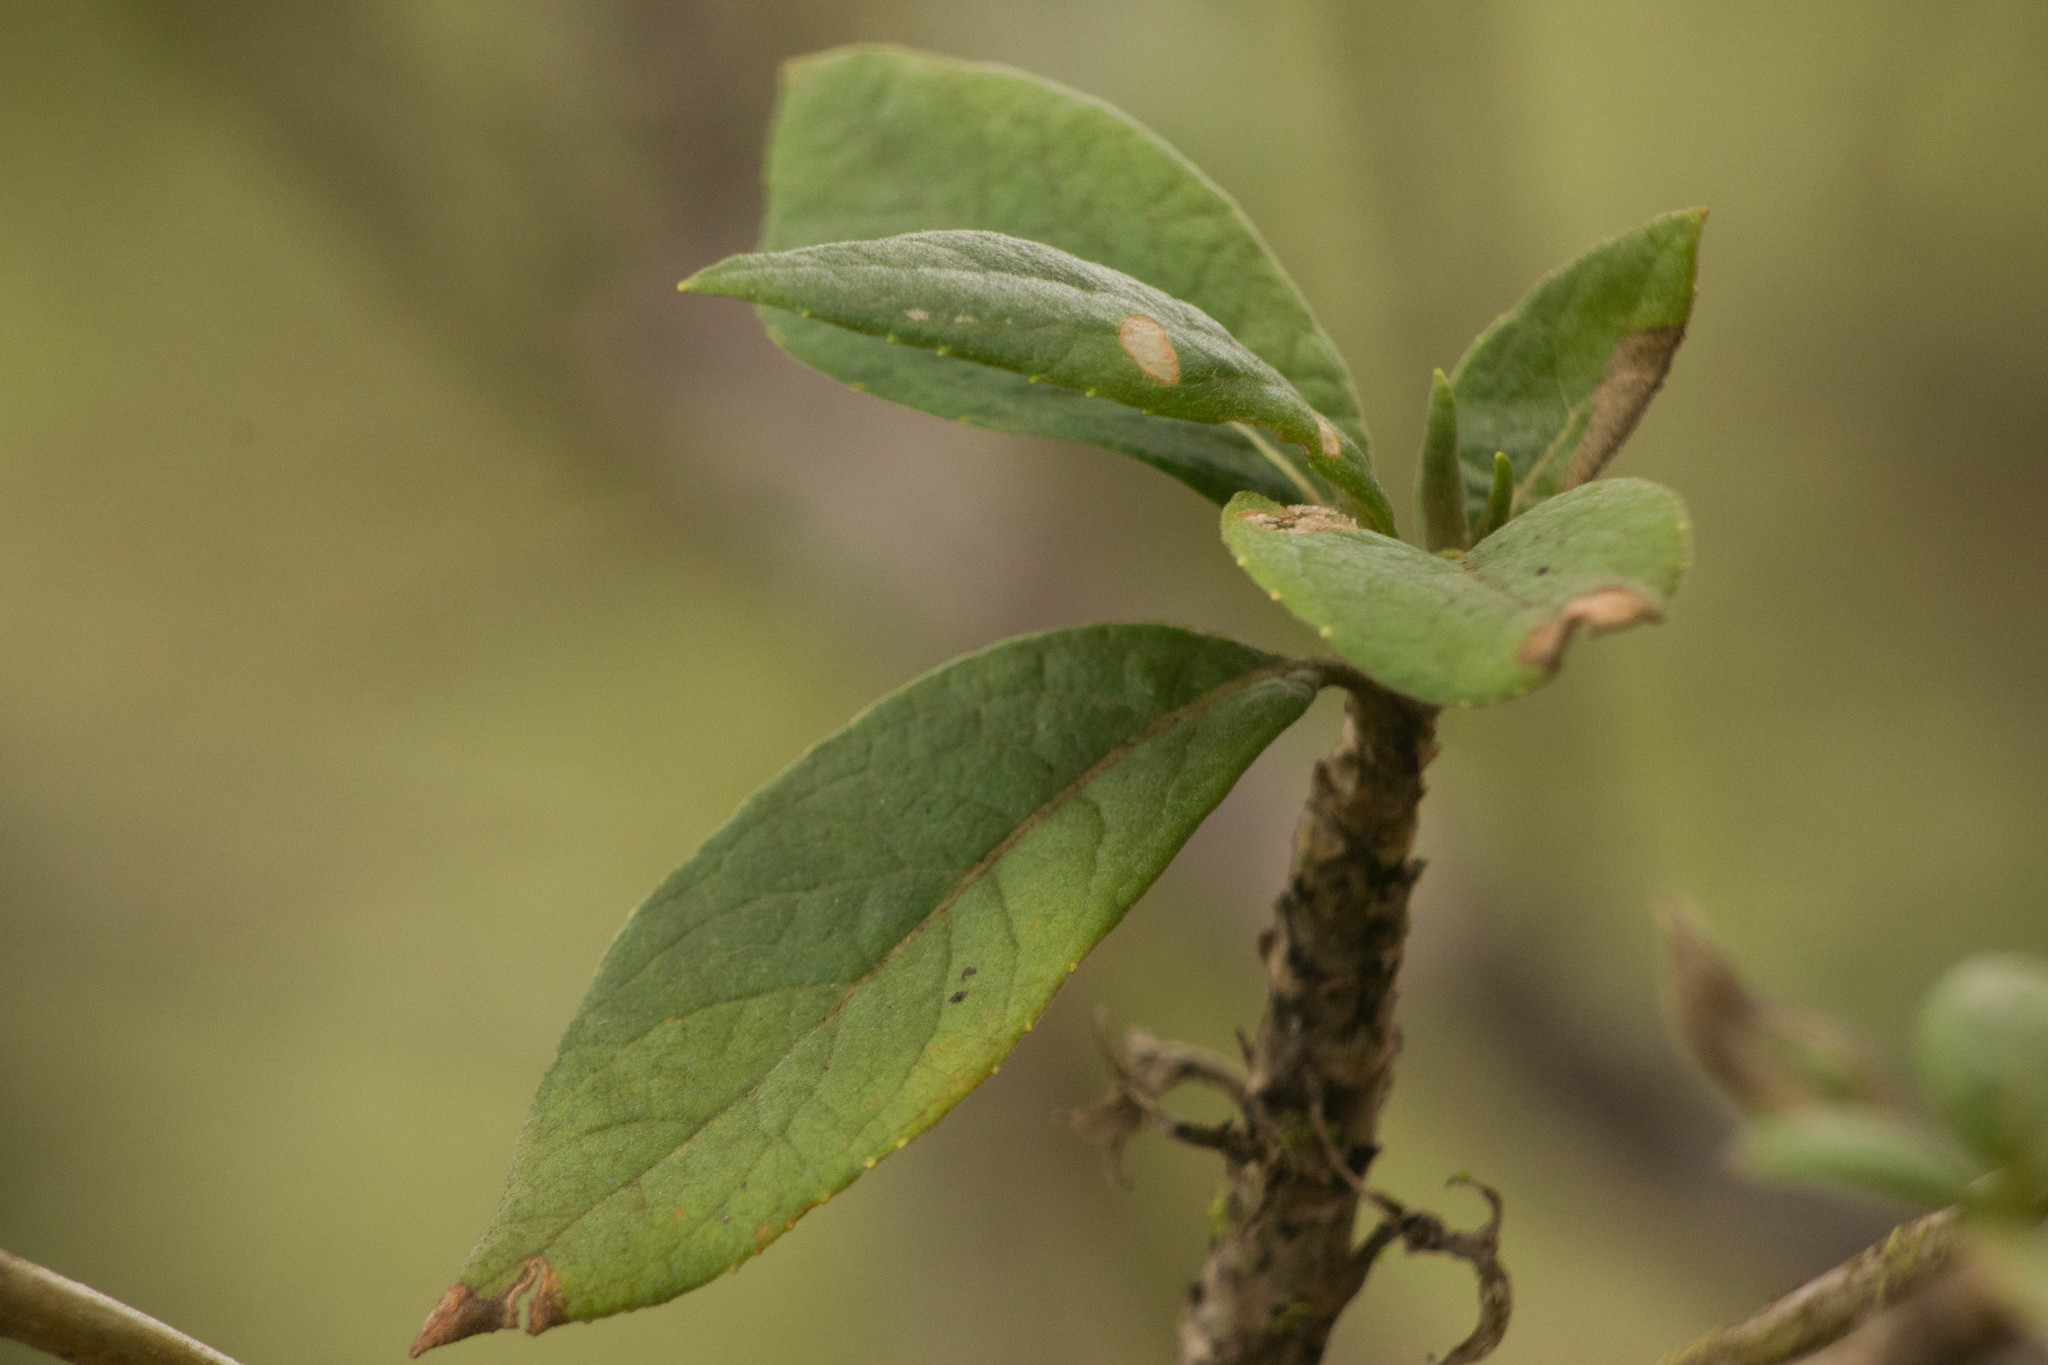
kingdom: Plantae
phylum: Tracheophyta
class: Magnoliopsida
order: Asterales
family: Goodeniaceae
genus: Scaevola
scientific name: Scaevola gaudichaudiana
